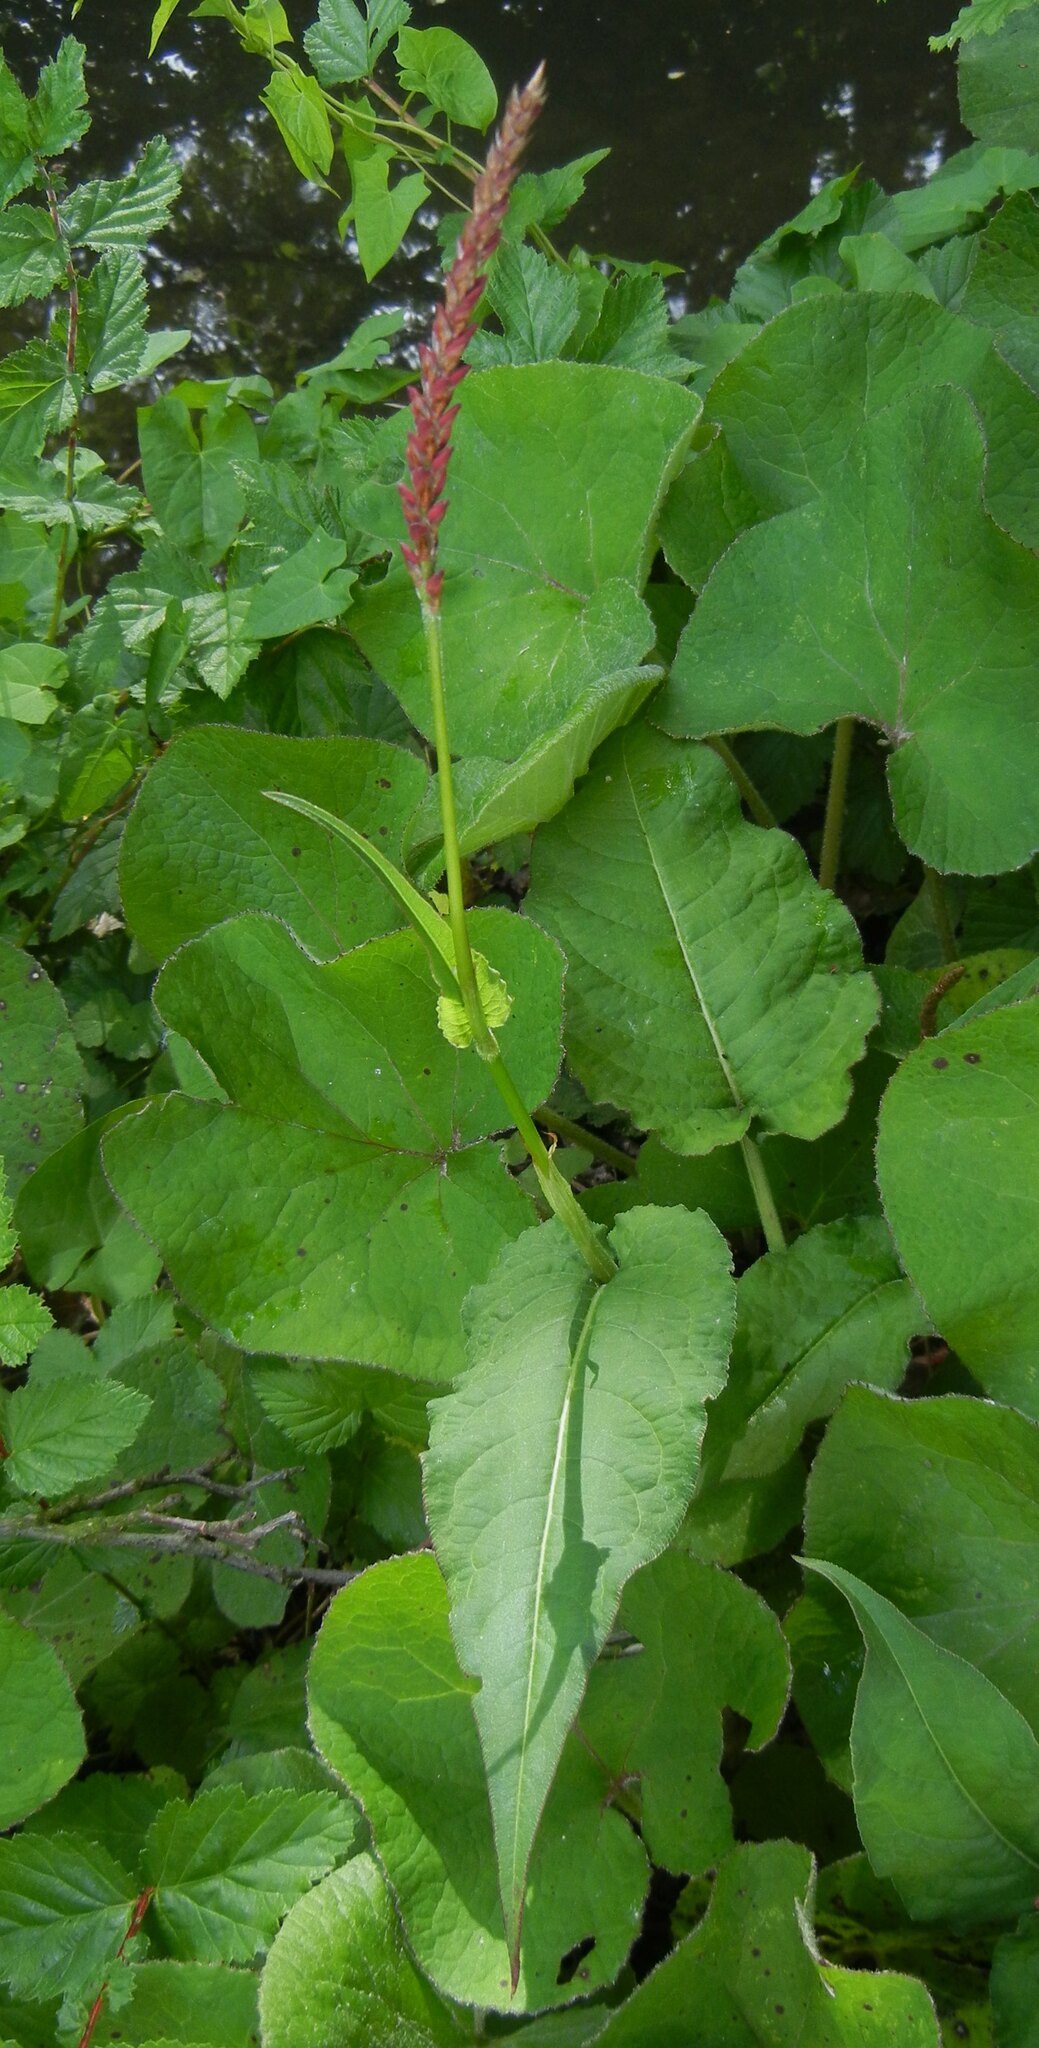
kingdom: Plantae
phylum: Tracheophyta
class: Magnoliopsida
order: Caryophyllales
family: Polygonaceae
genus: Bistorta
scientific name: Bistorta amplexicaulis
